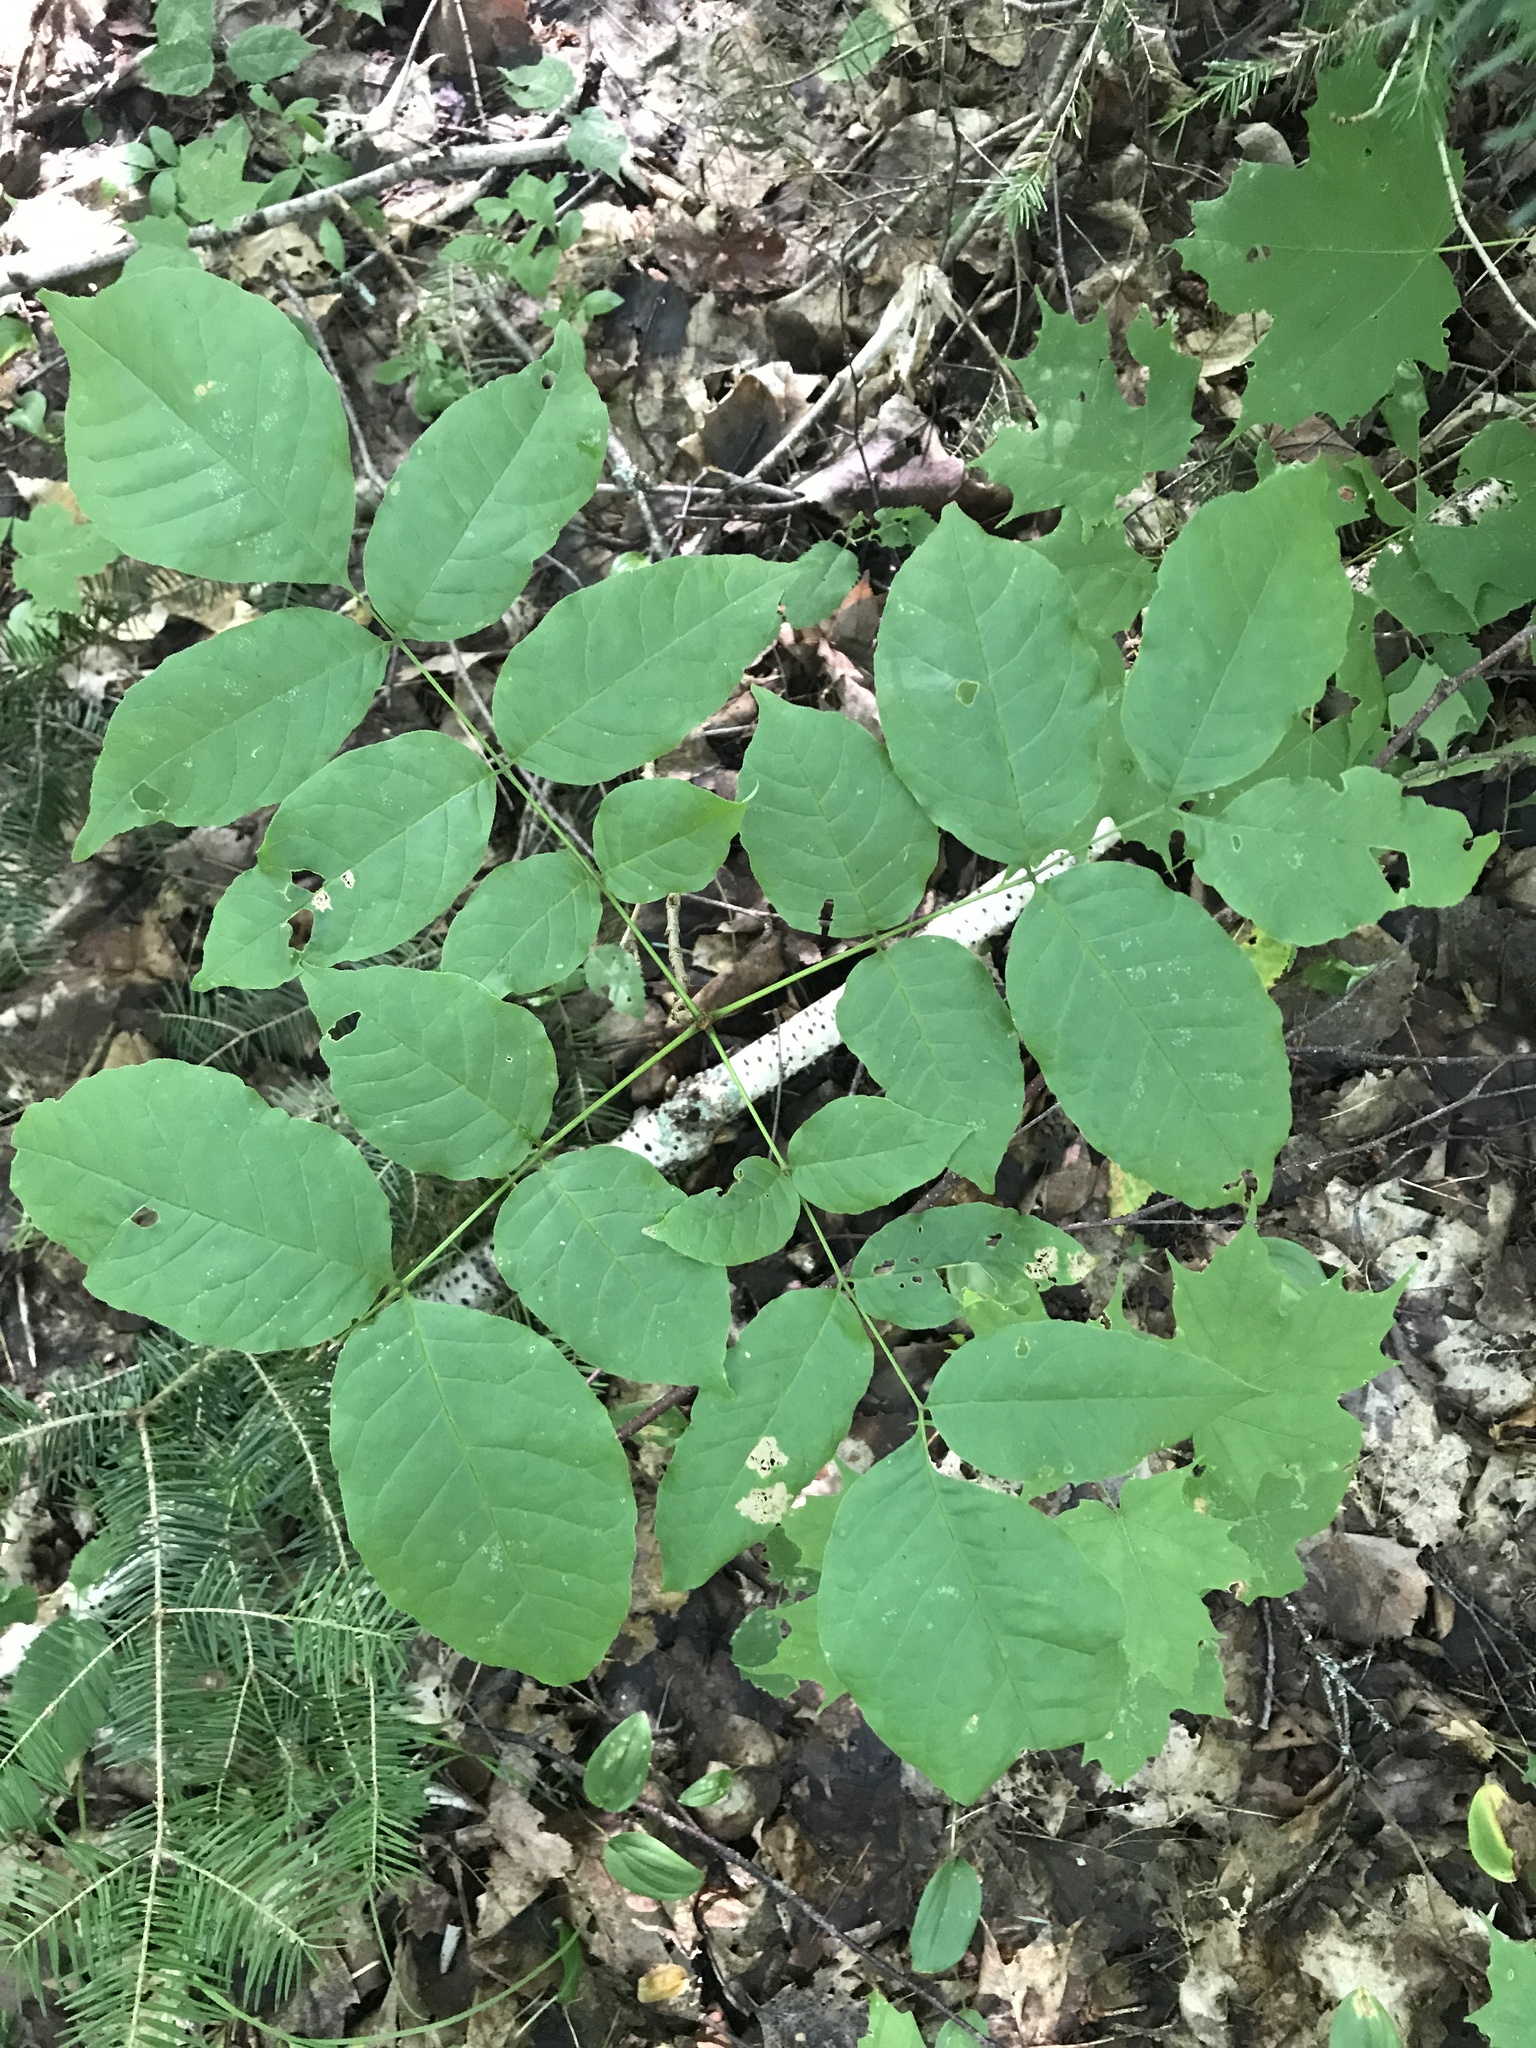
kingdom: Plantae
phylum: Tracheophyta
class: Magnoliopsida
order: Lamiales
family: Oleaceae
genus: Fraxinus
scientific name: Fraxinus americana
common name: White ash
